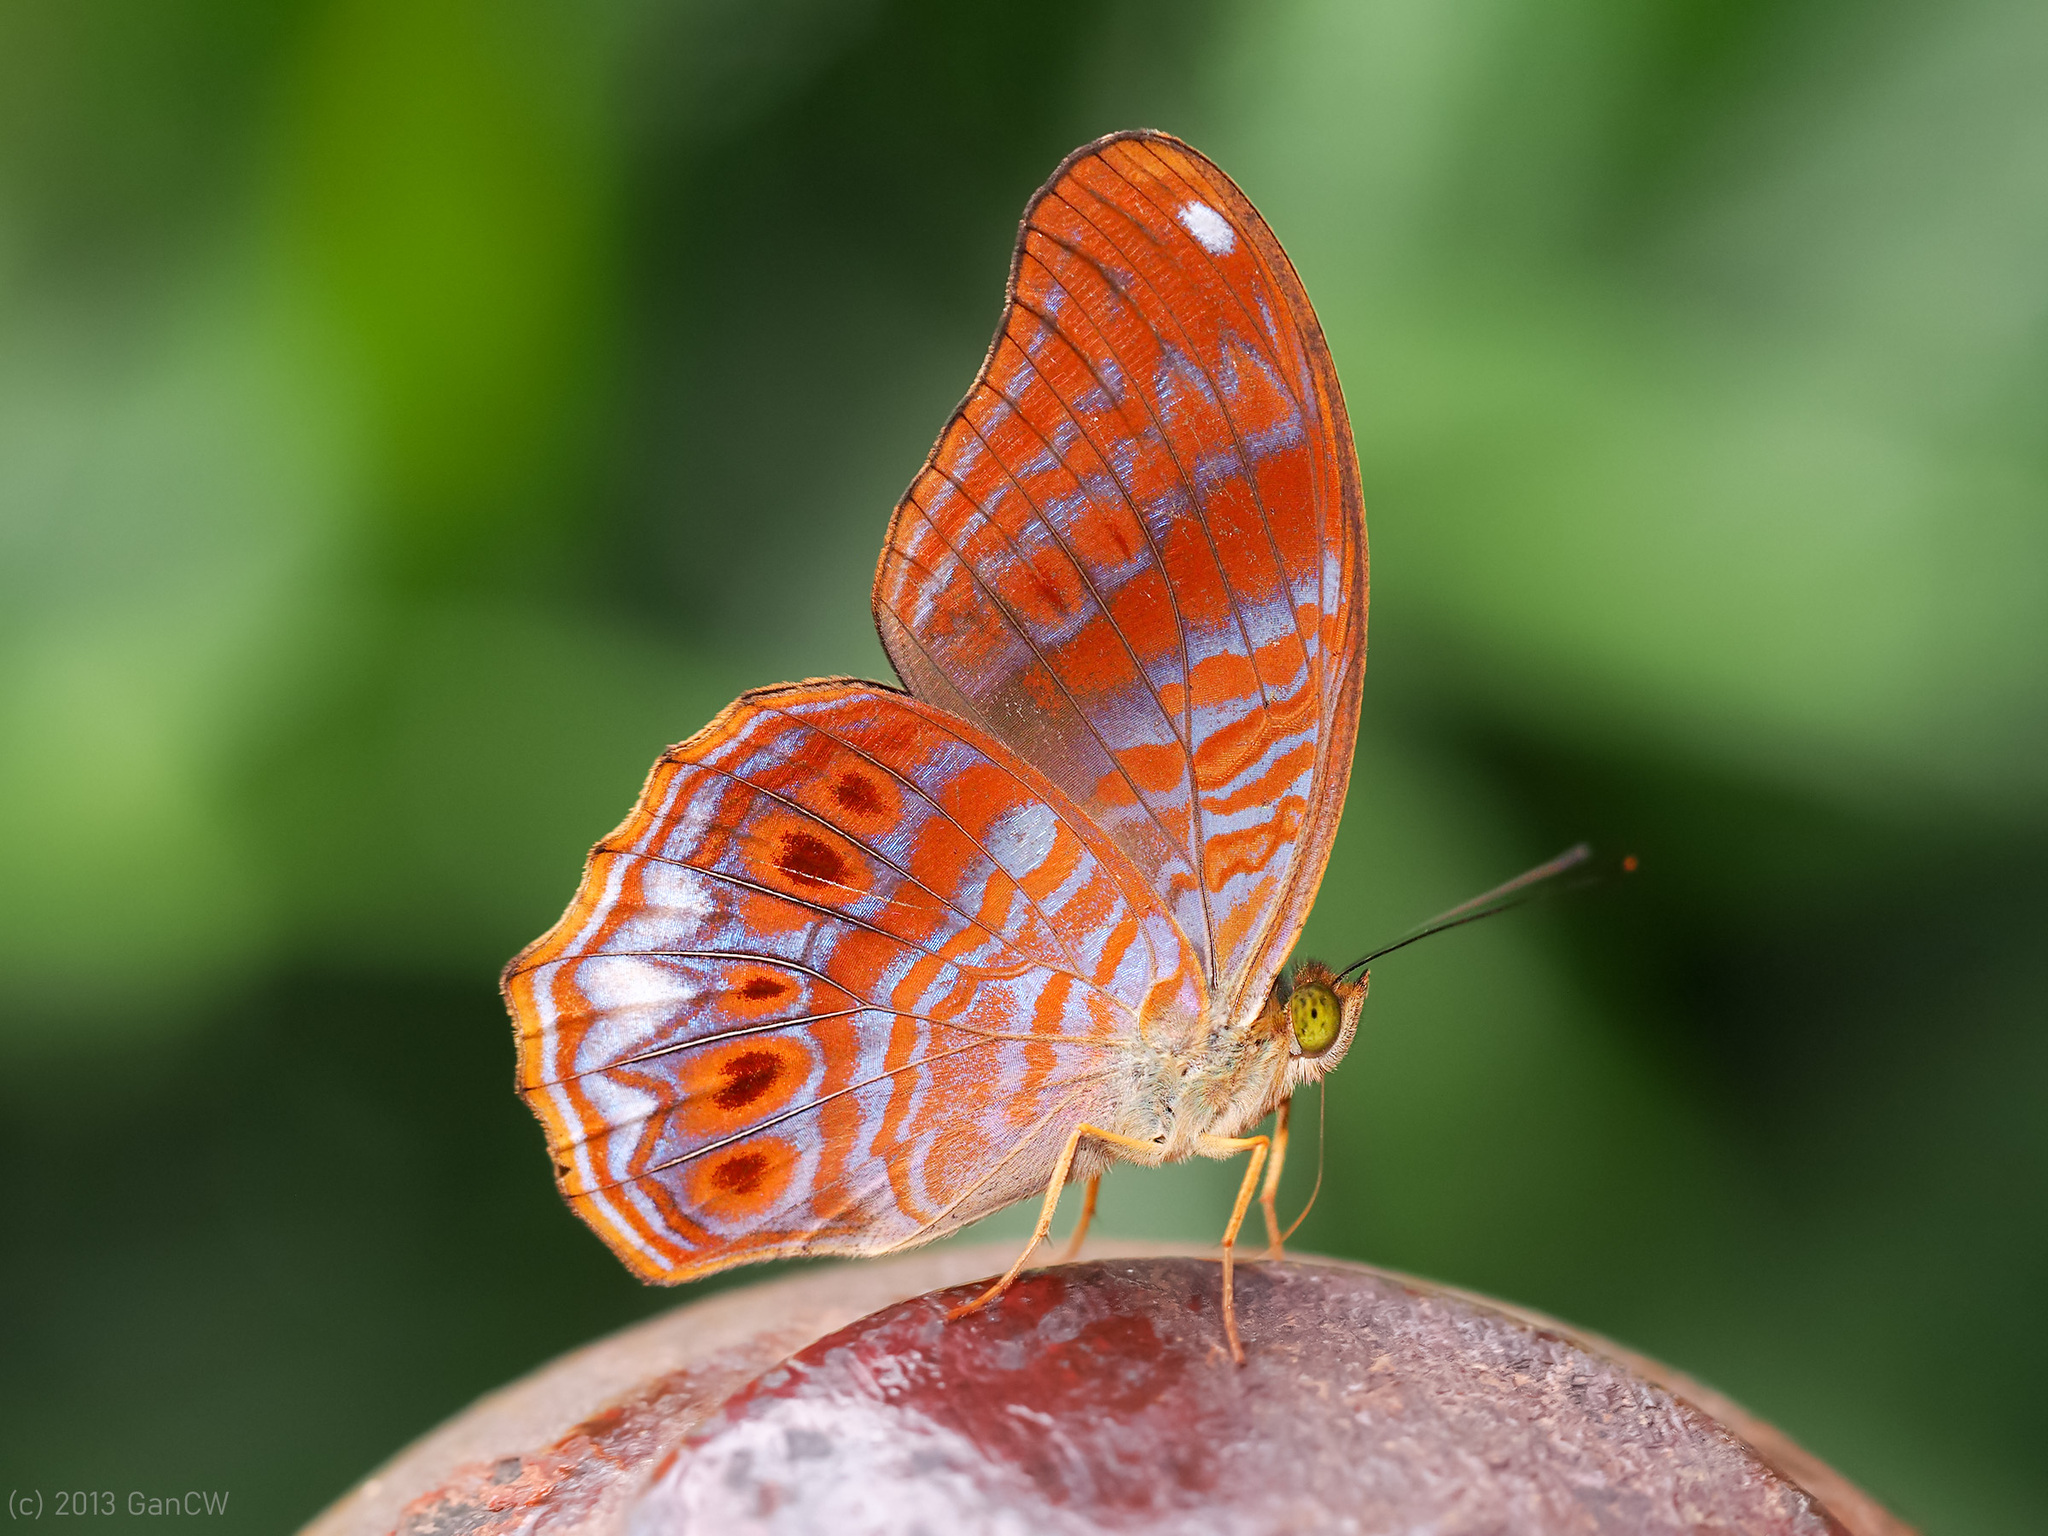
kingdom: Animalia
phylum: Arthropoda
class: Insecta
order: Lepidoptera
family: Nymphalidae
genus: Terinos
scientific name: Terinos terpander
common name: Royal assyrian
